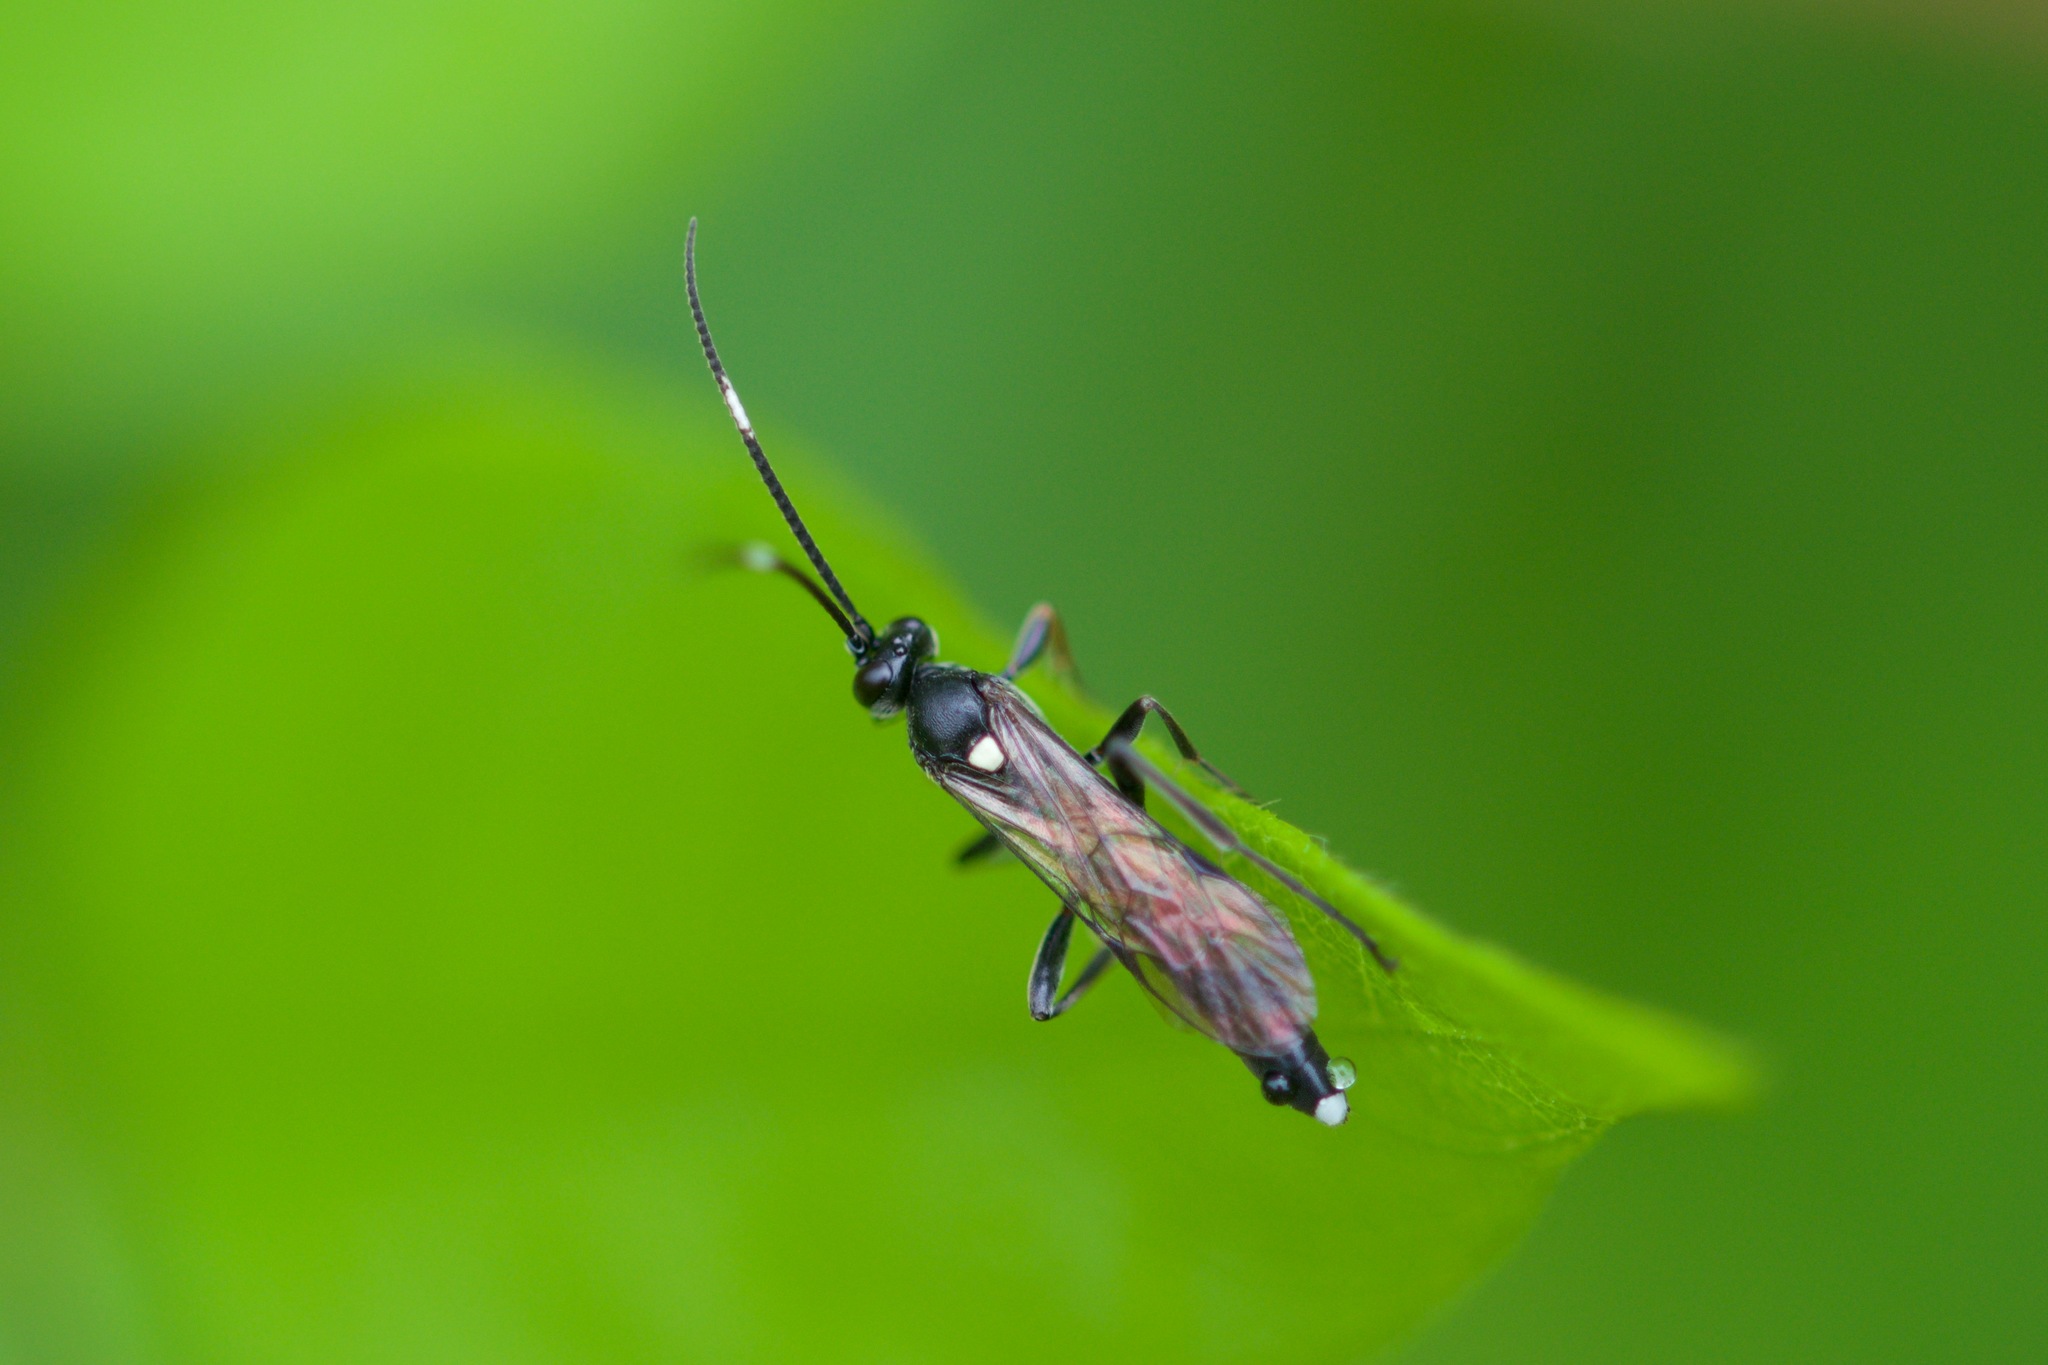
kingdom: Animalia
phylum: Arthropoda
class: Insecta
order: Hymenoptera
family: Ichneumonidae
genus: Vulgichneumon
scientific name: Vulgichneumon brevicinctor
